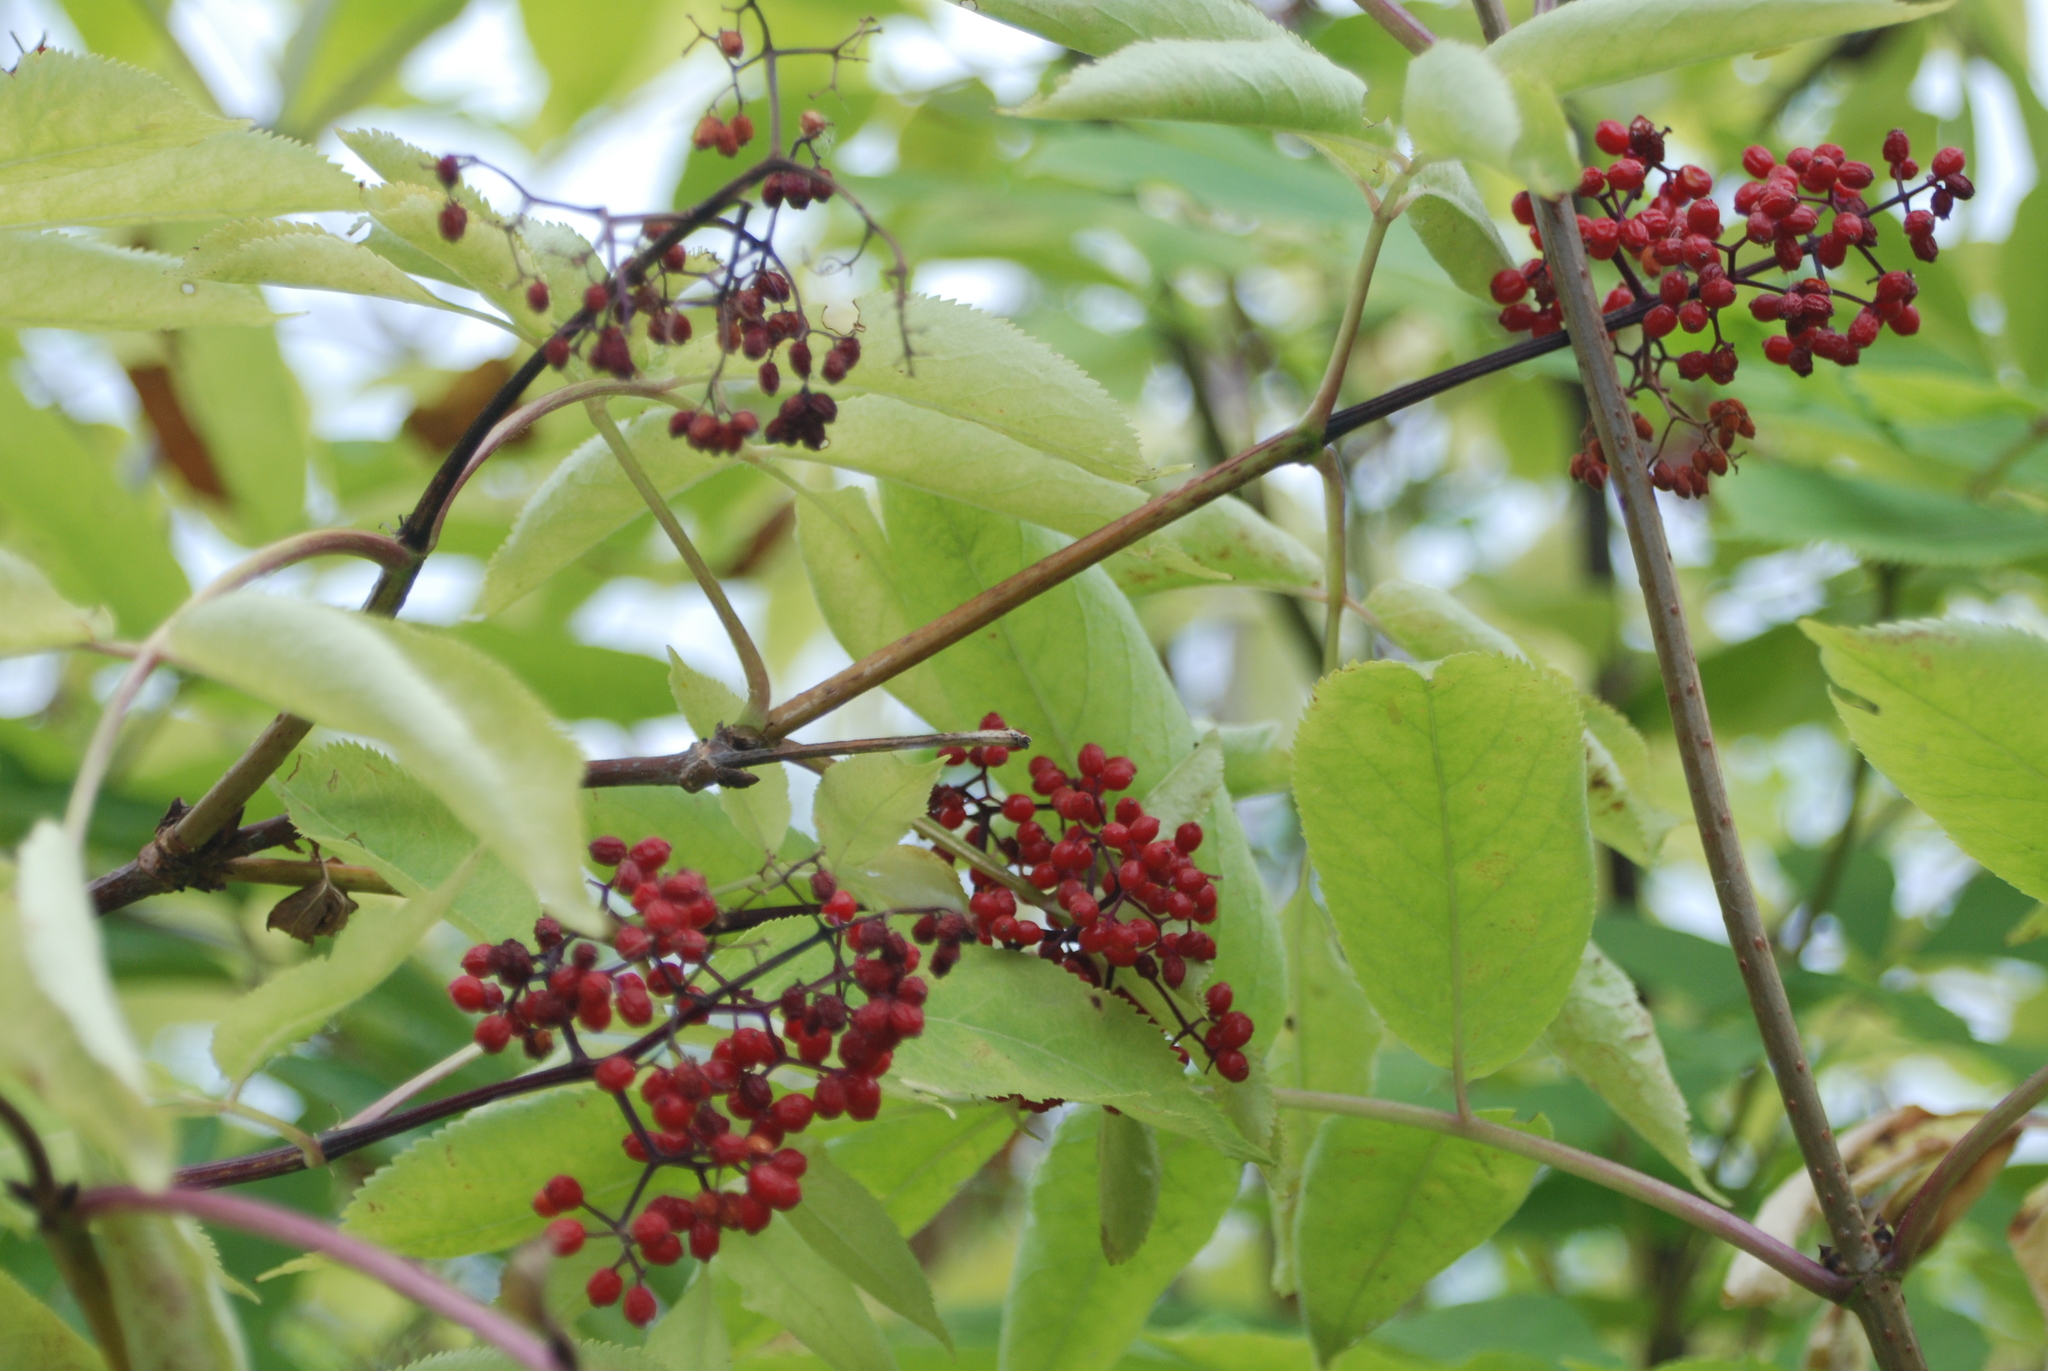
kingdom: Plantae
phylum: Tracheophyta
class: Magnoliopsida
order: Dipsacales
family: Viburnaceae
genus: Sambucus
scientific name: Sambucus racemosa
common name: Red-berried elder
